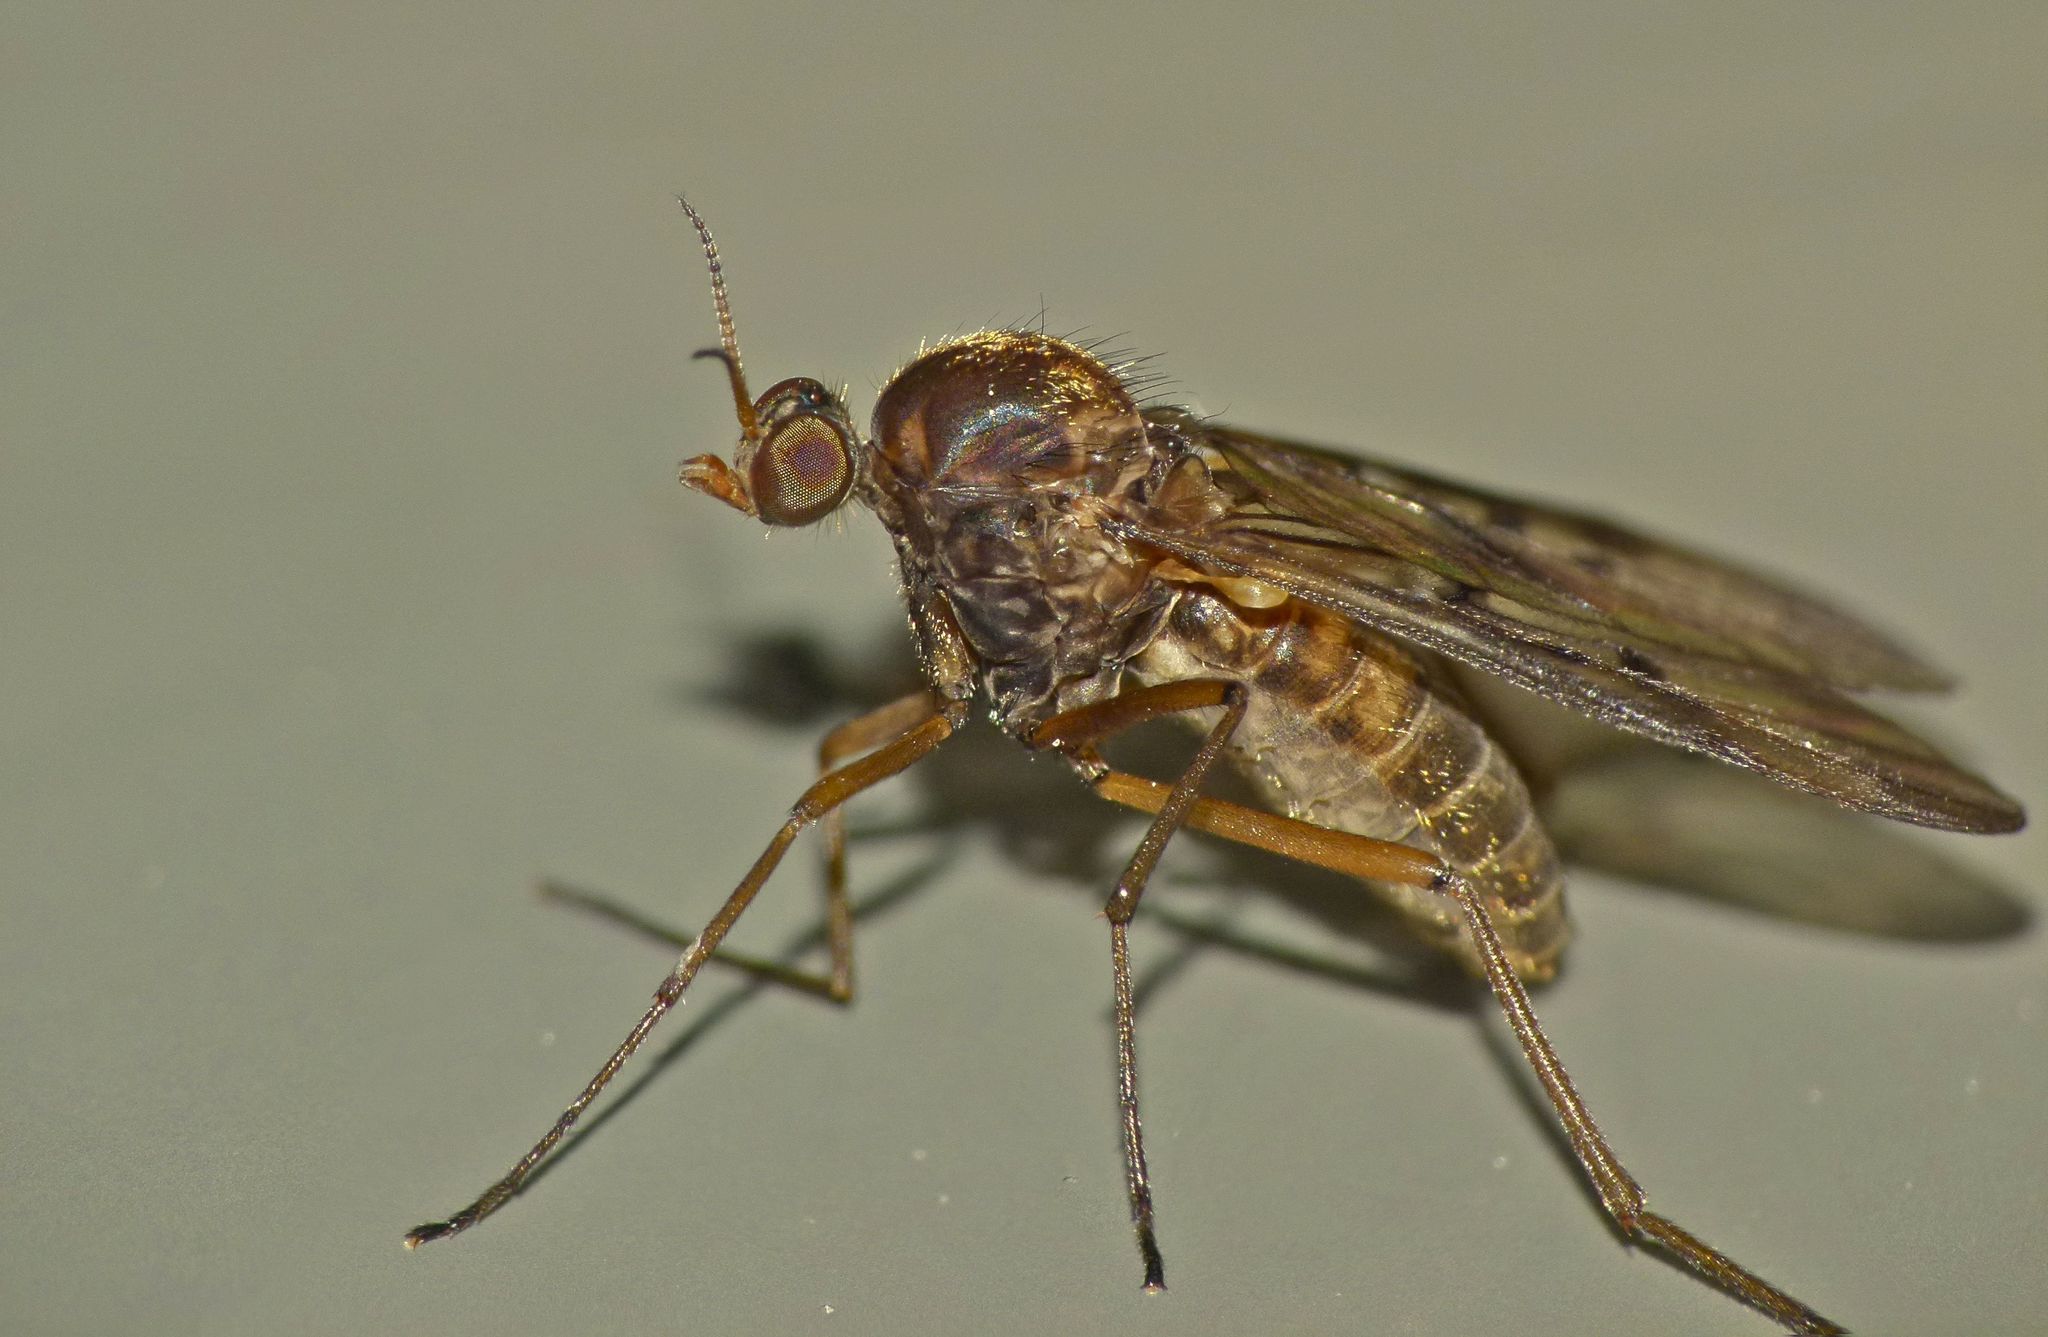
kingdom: Animalia
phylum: Arthropoda
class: Insecta
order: Diptera
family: Anisopodidae
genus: Sylvicola
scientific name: Sylvicola neozelandicus
